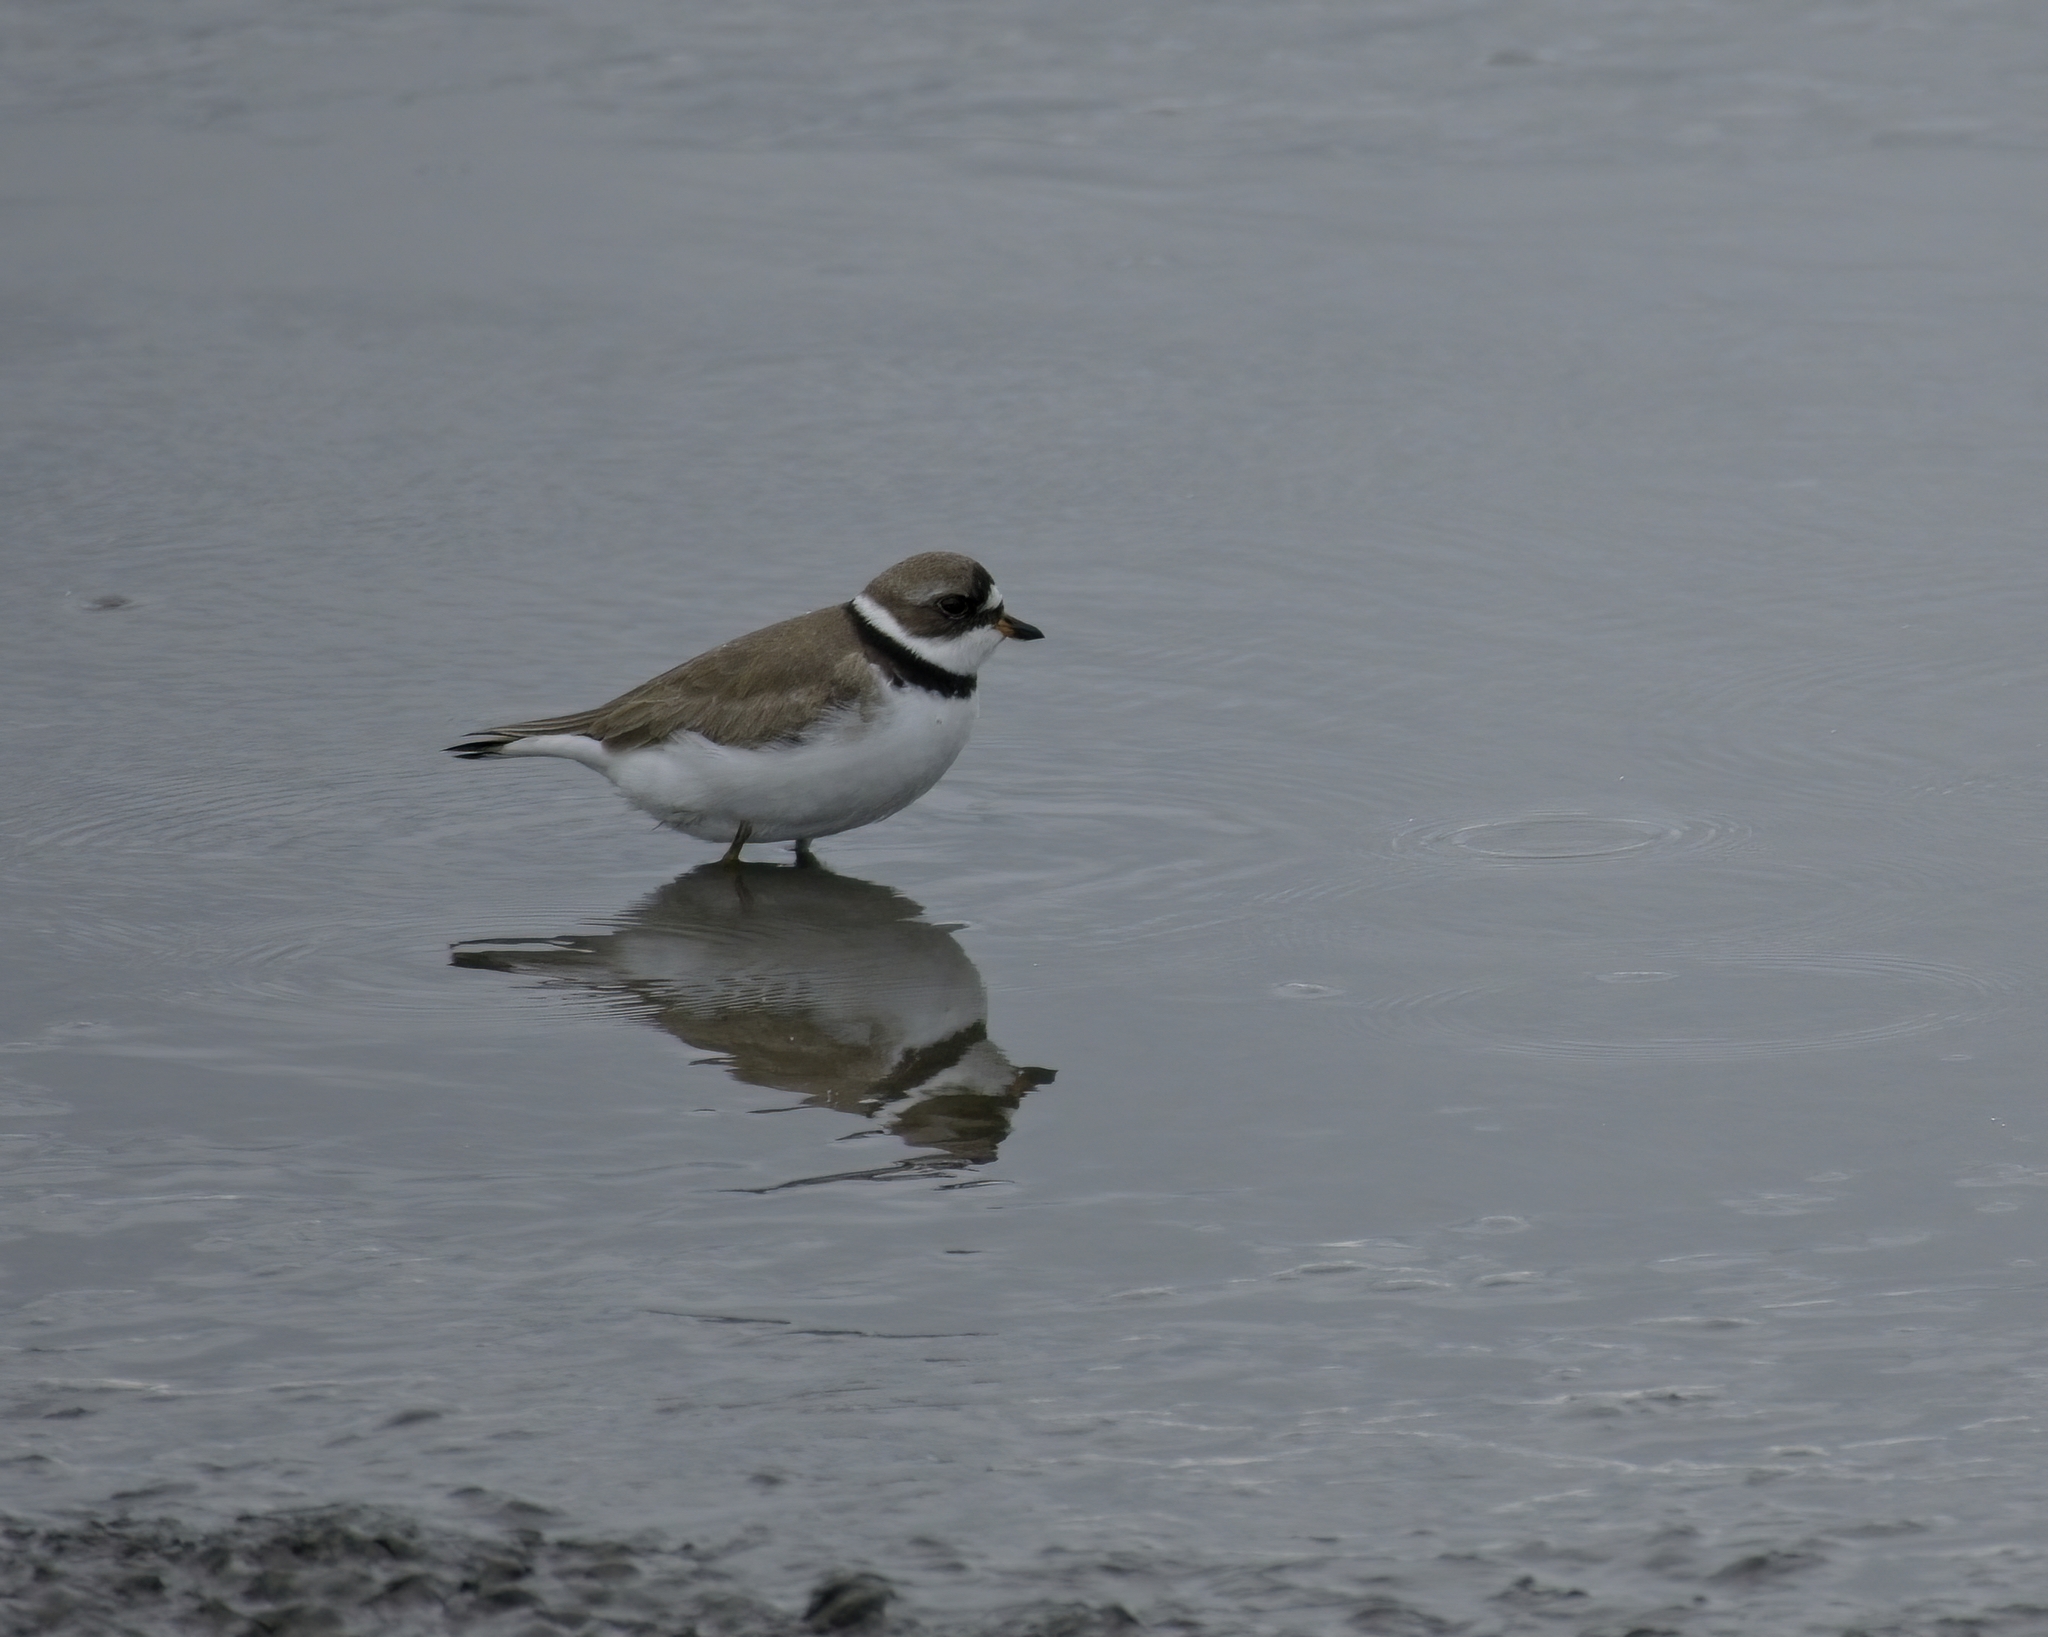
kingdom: Animalia
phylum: Chordata
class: Aves
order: Charadriiformes
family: Charadriidae
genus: Charadrius
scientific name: Charadrius semipalmatus
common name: Semipalmated plover
